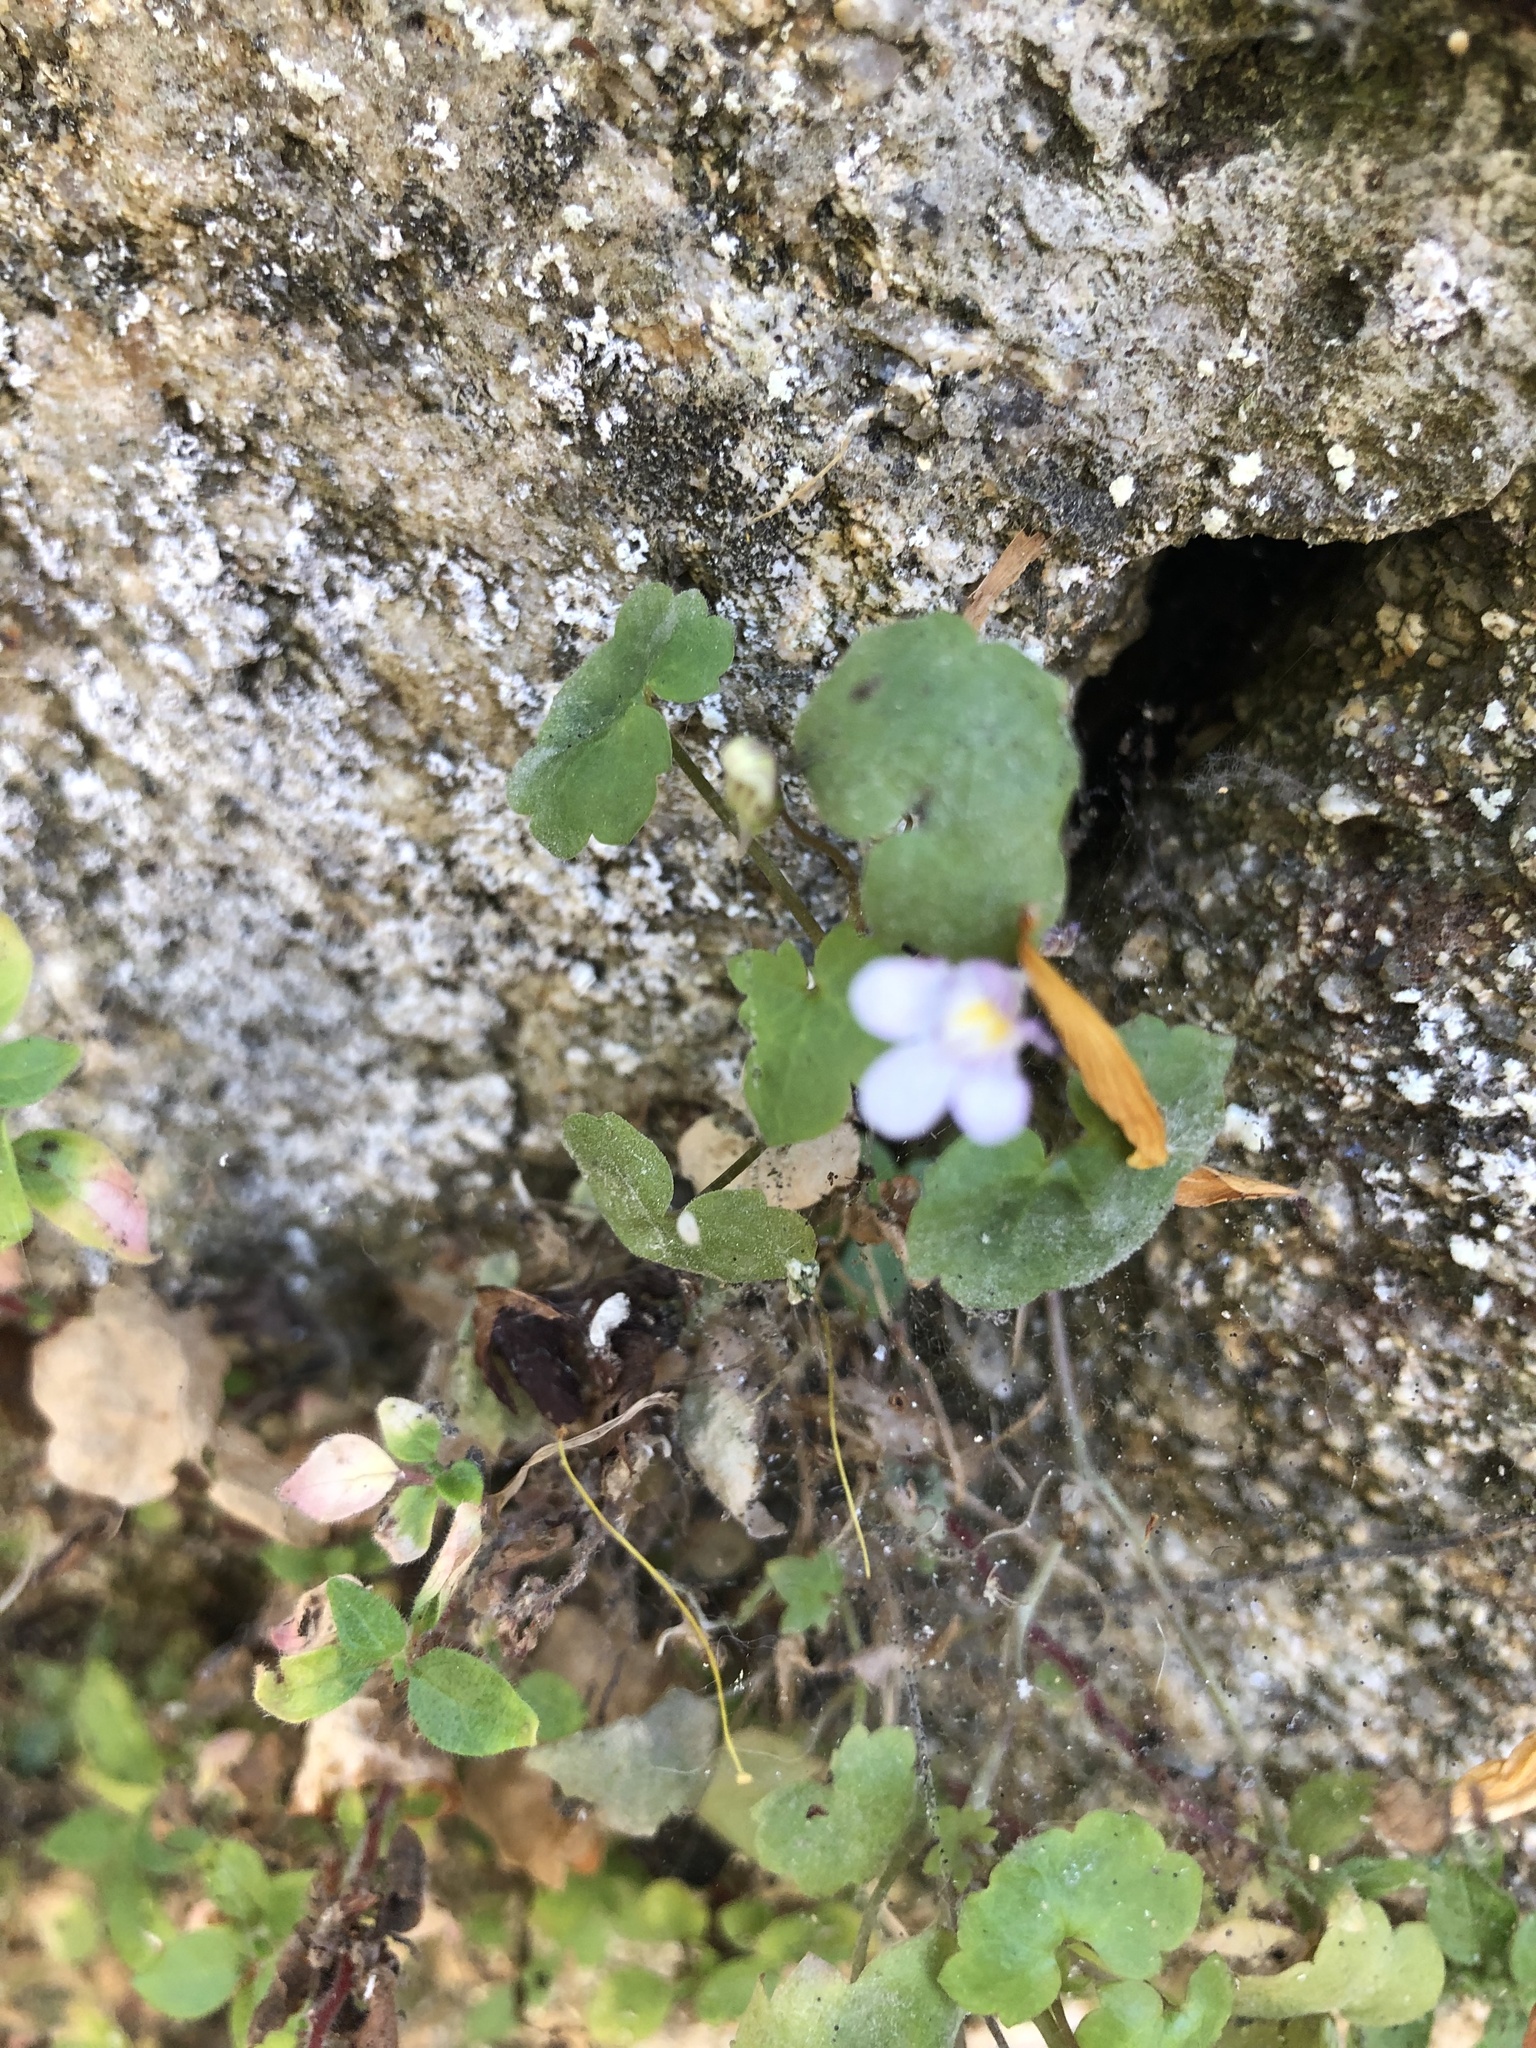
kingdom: Plantae
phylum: Tracheophyta
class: Magnoliopsida
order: Lamiales
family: Plantaginaceae
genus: Cymbalaria
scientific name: Cymbalaria muralis
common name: Ivy-leaved toadflax
